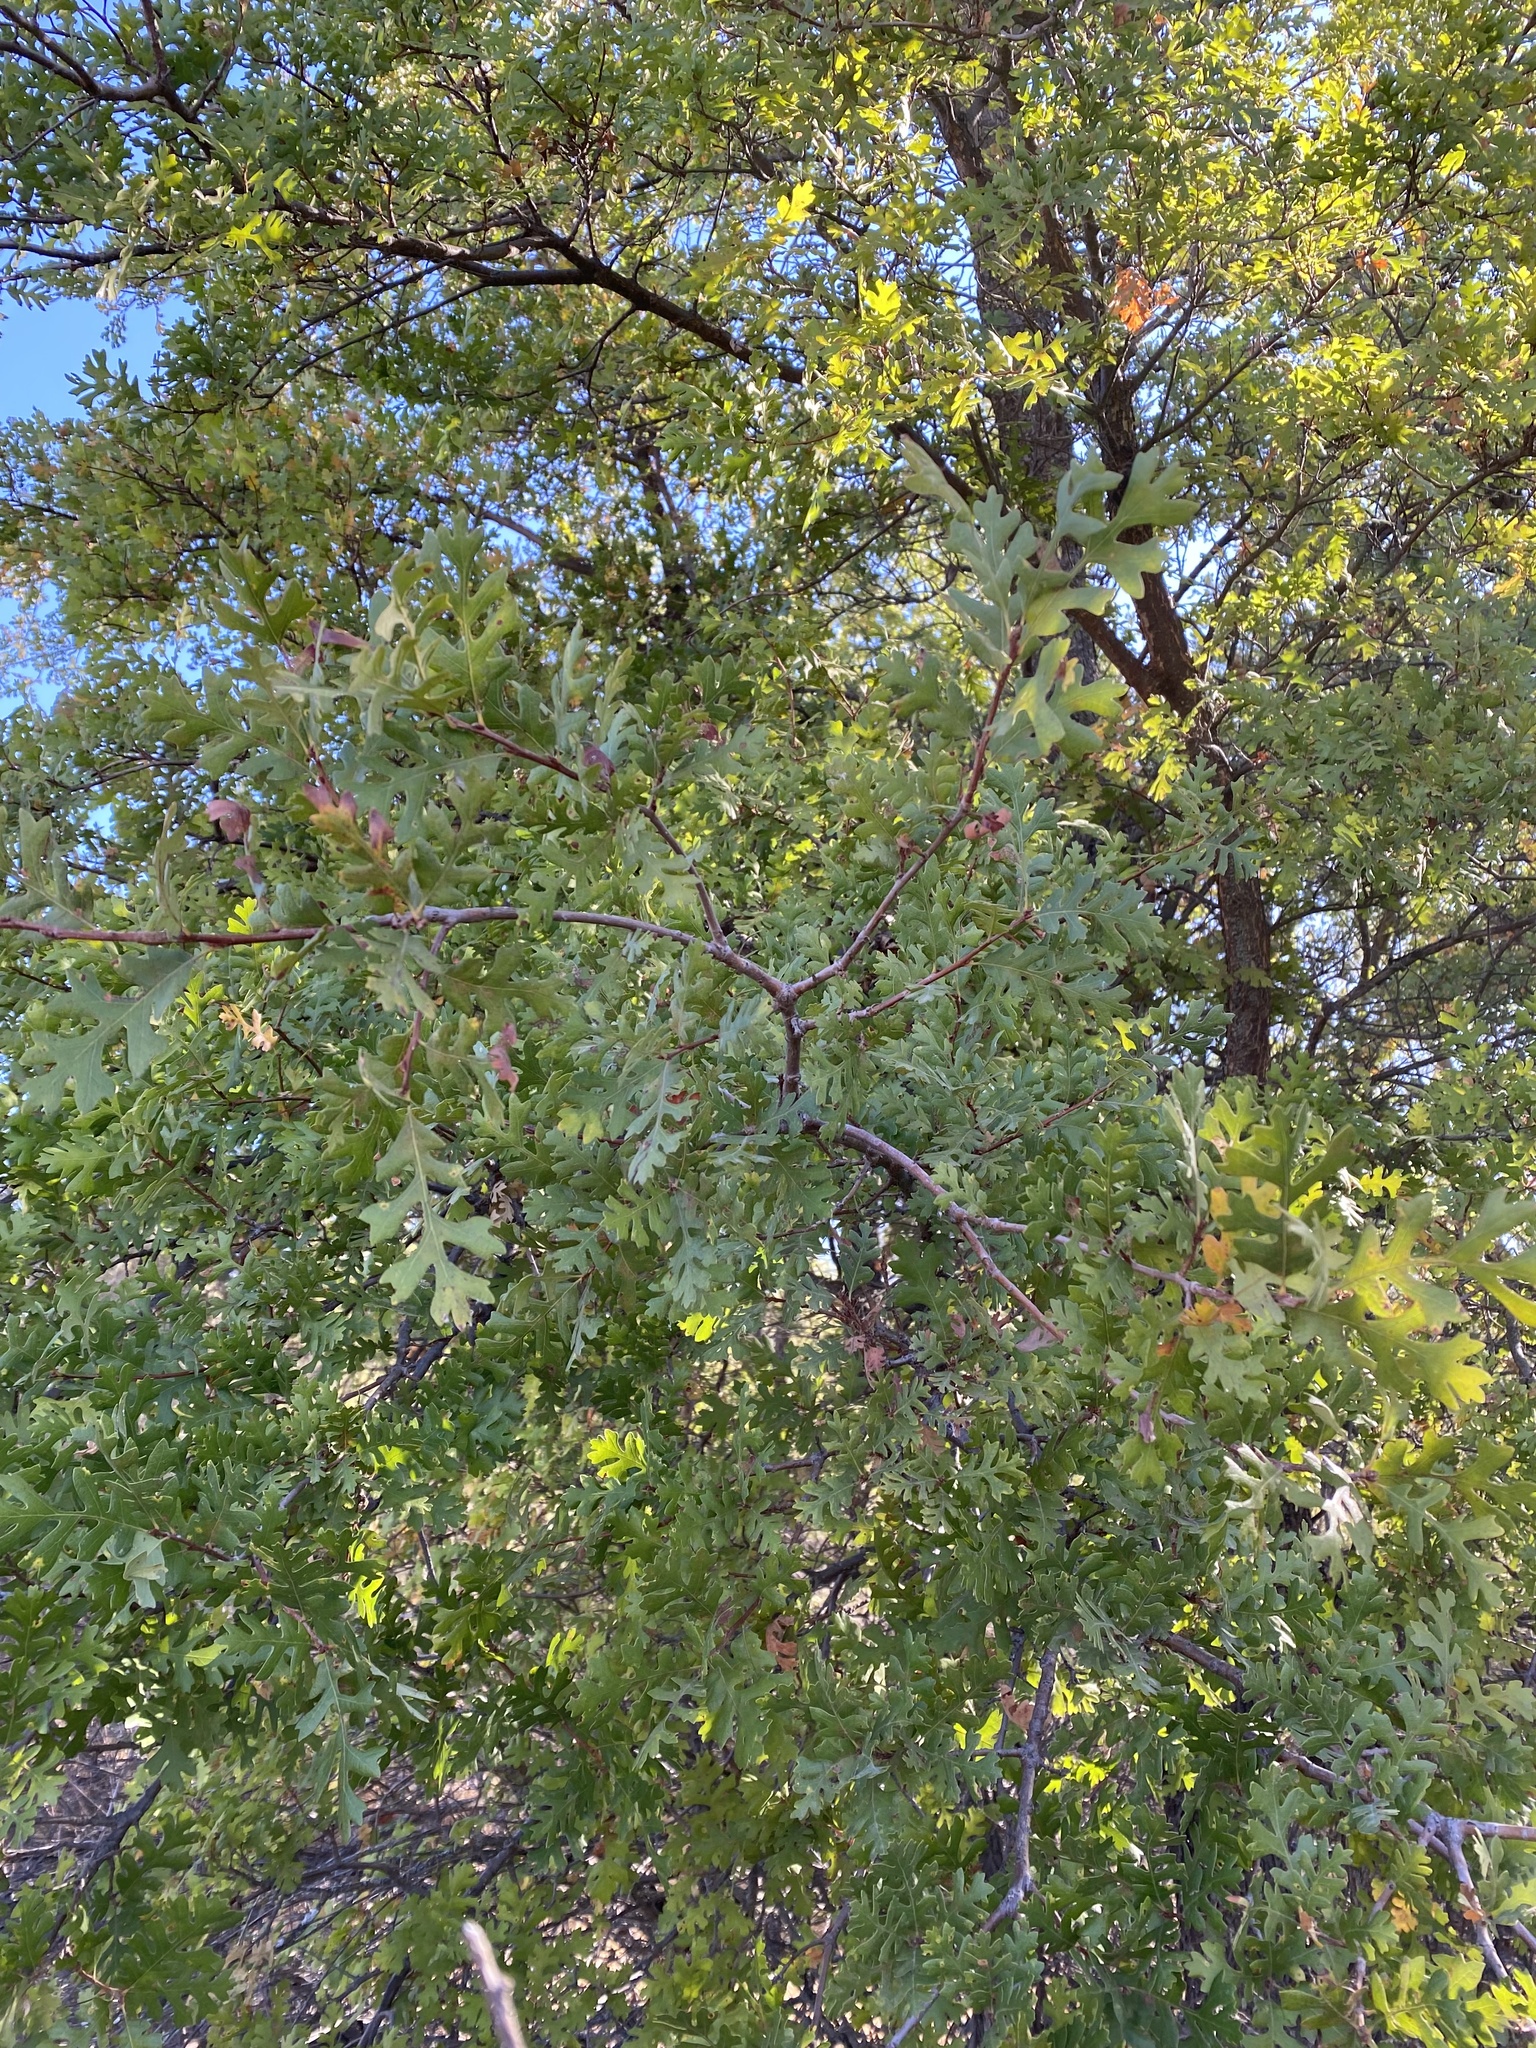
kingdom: Plantae
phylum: Tracheophyta
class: Magnoliopsida
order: Fagales
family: Fagaceae
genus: Quercus
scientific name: Quercus lobata
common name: Valley oak
